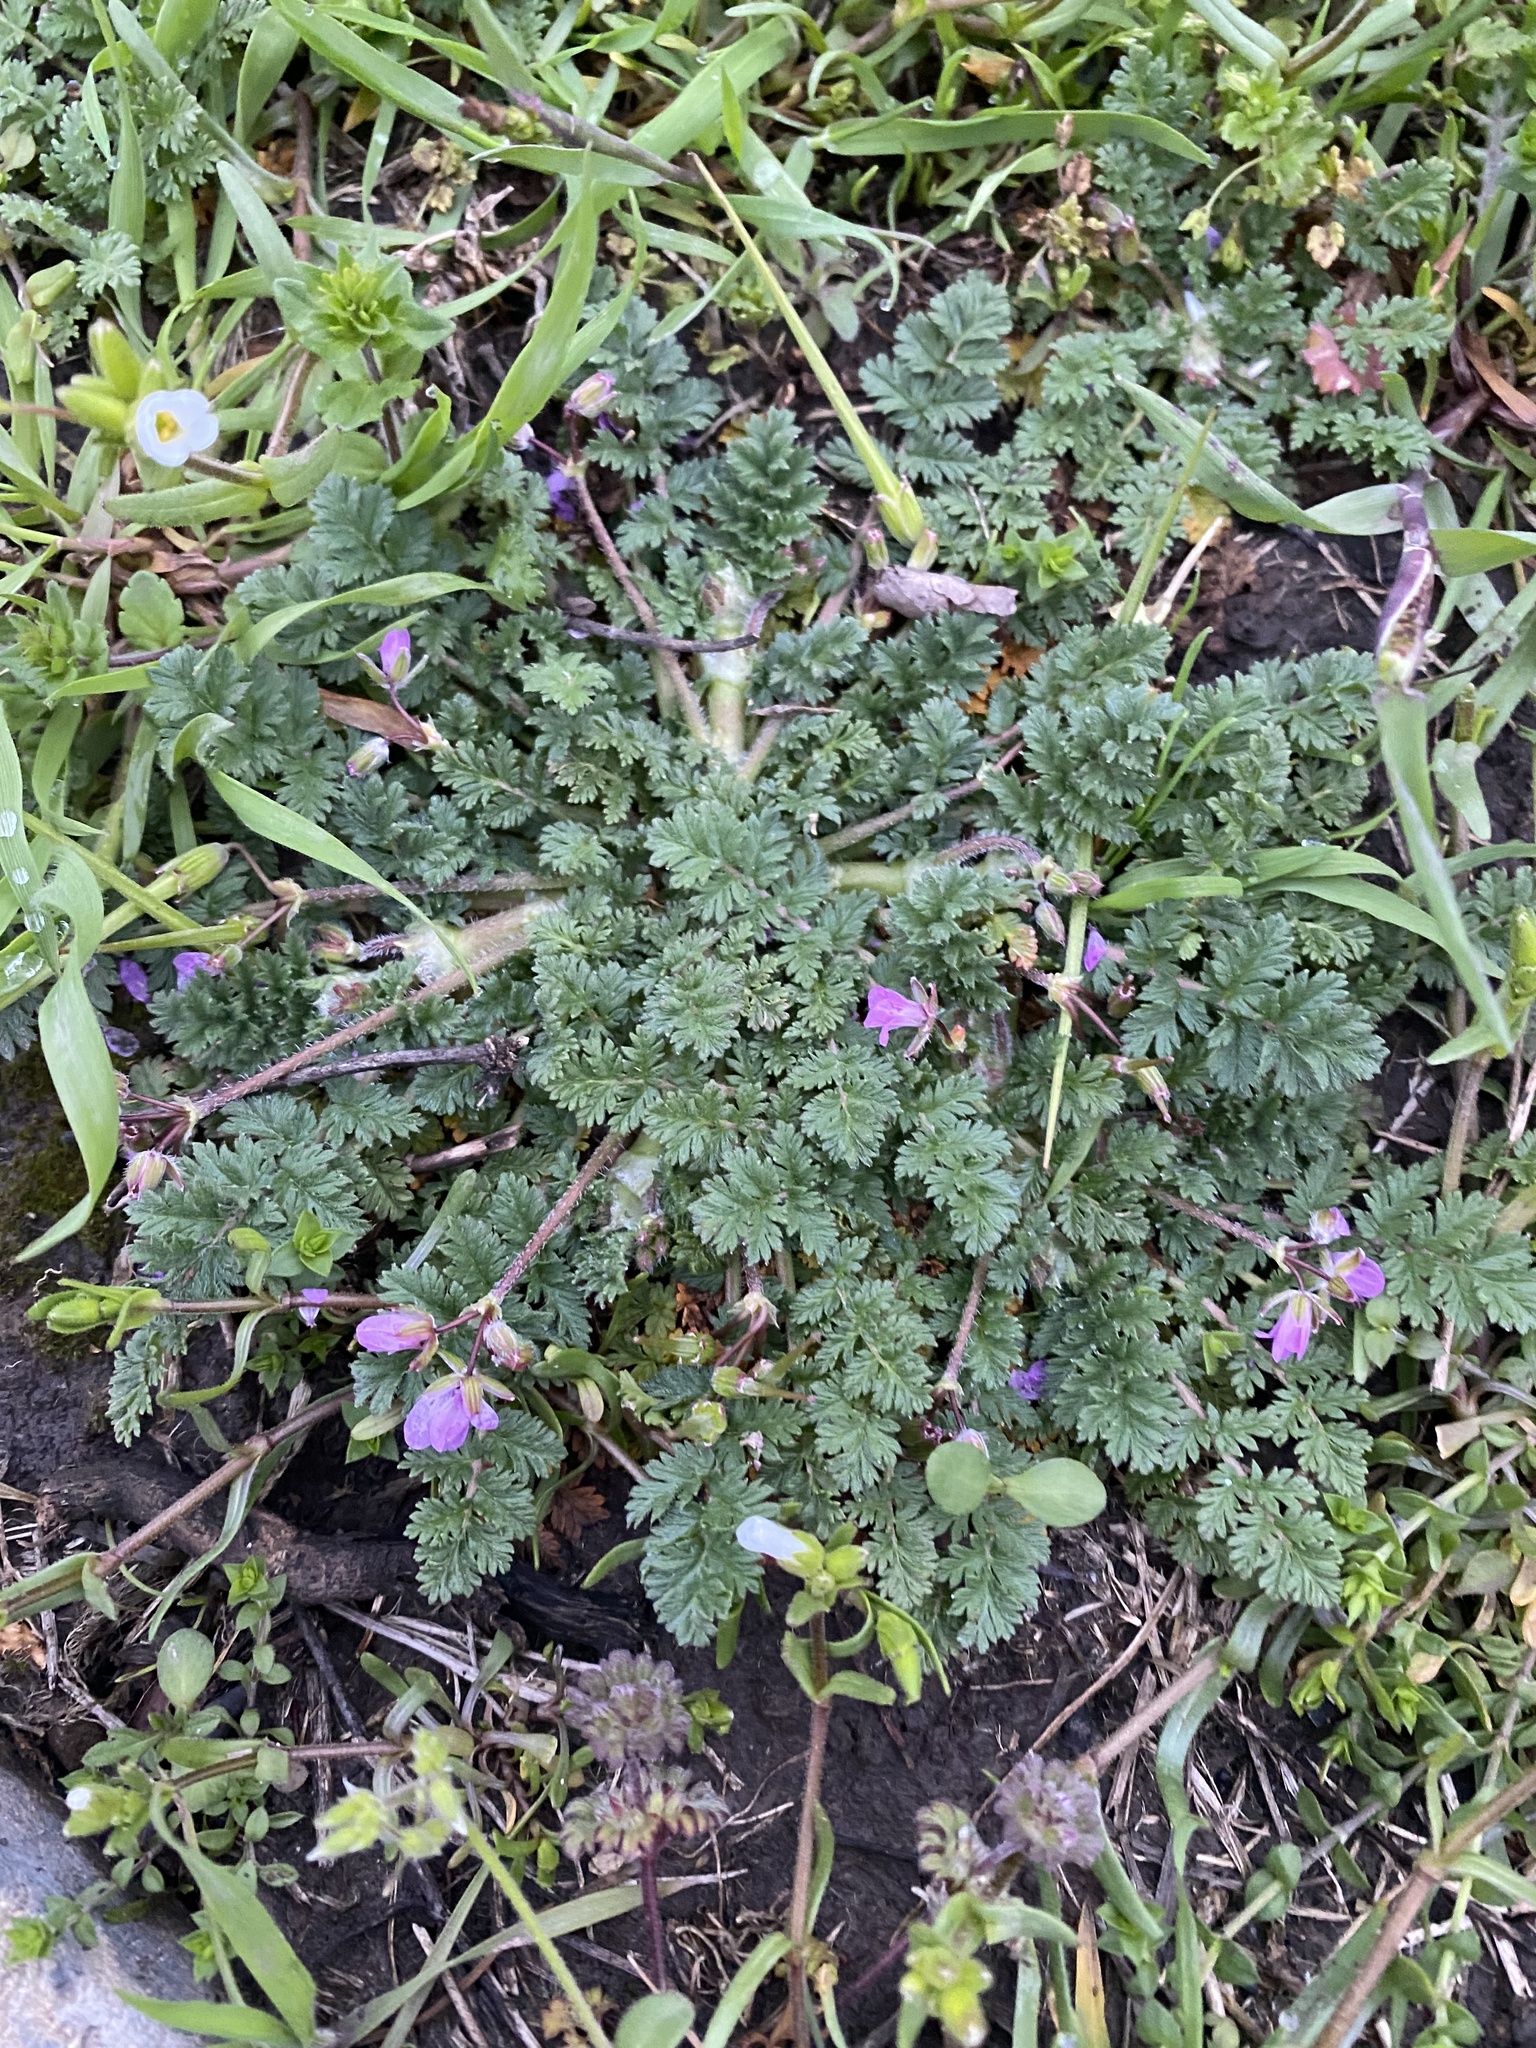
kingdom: Plantae
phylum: Tracheophyta
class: Magnoliopsida
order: Geraniales
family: Geraniaceae
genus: Erodium
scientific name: Erodium cicutarium
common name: Common stork's-bill
